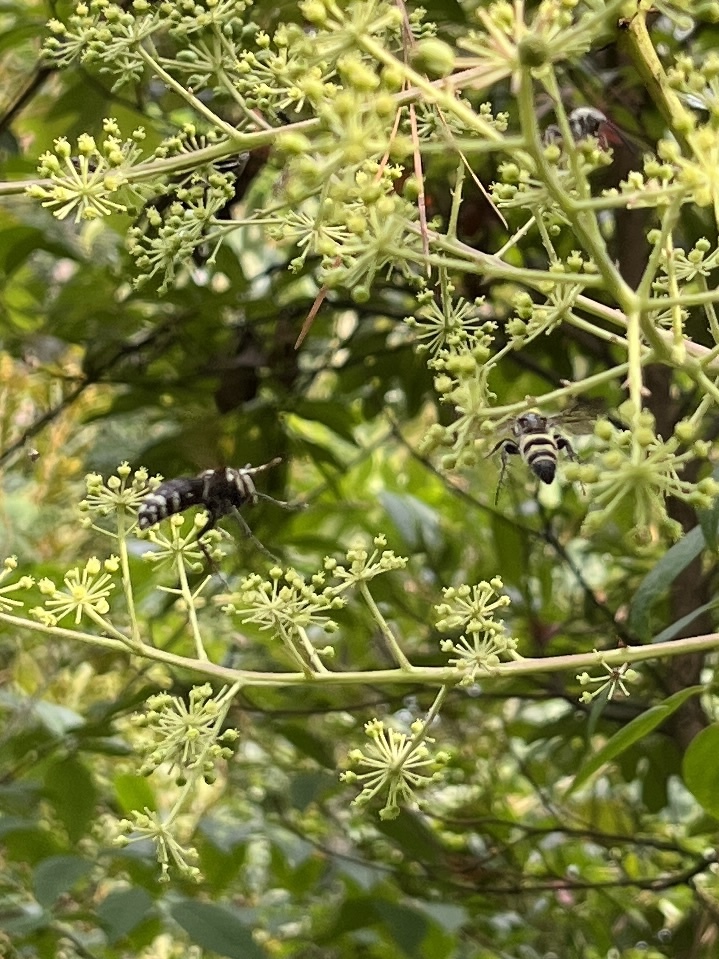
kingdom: Animalia
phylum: Arthropoda
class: Insecta
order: Hymenoptera
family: Vespidae
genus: Dolichovespula
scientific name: Dolichovespula maculata
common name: Bald-faced hornet
